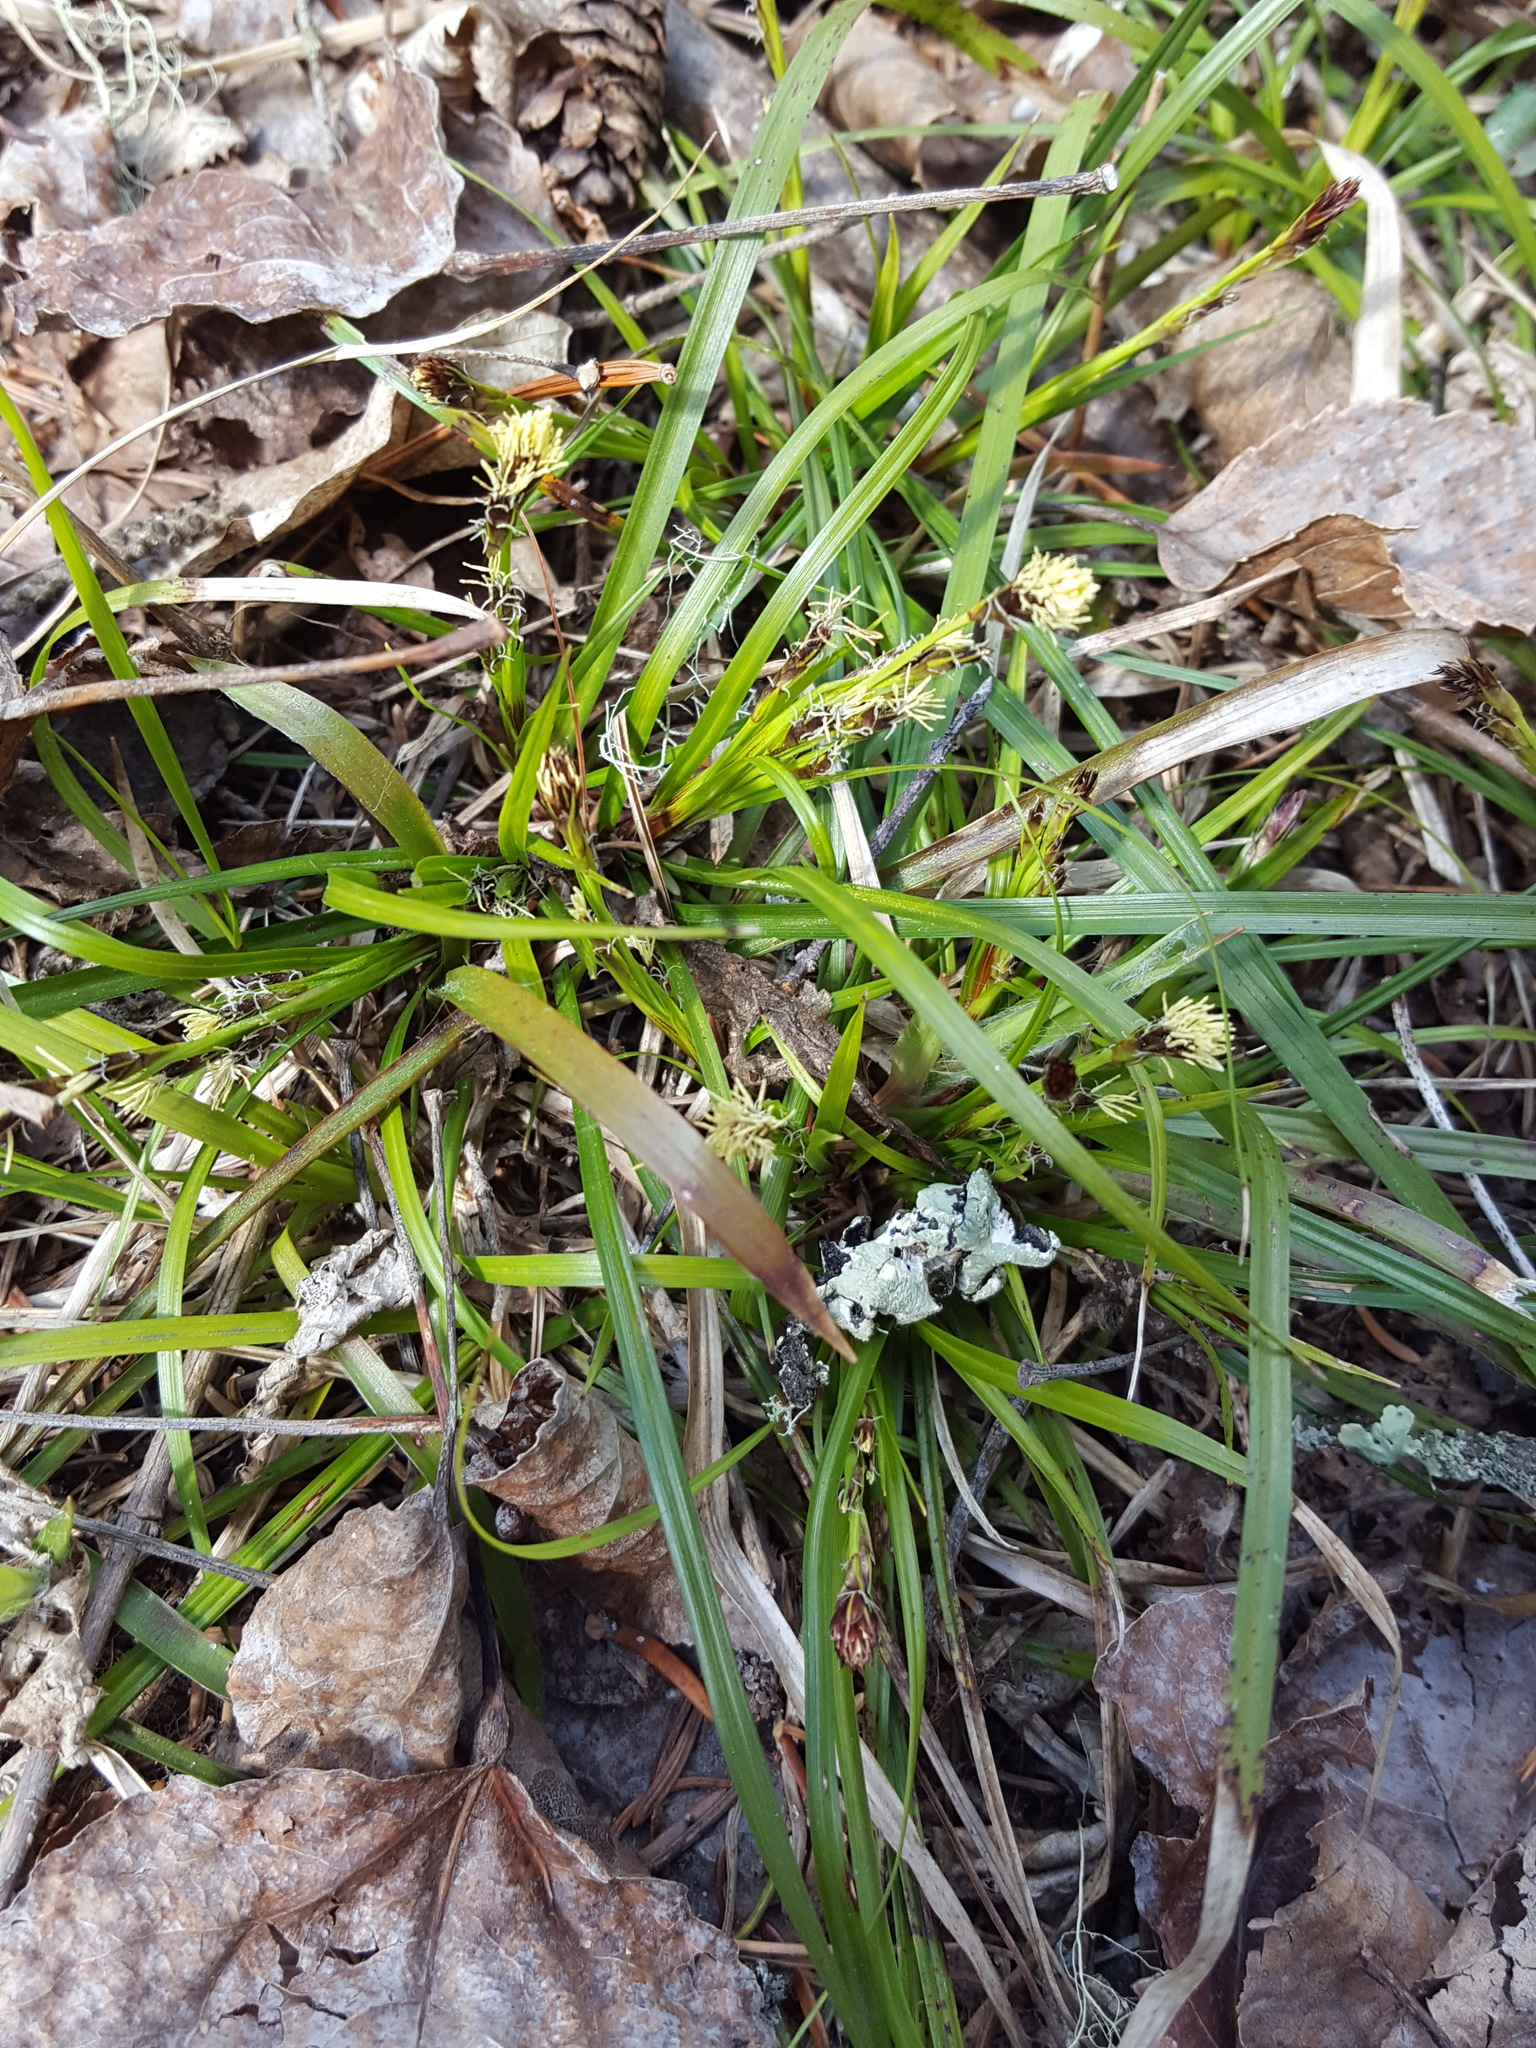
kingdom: Plantae
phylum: Tracheophyta
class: Liliopsida
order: Poales
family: Cyperaceae
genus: Carex
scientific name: Carex pensylvanica
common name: Common oak sedge
